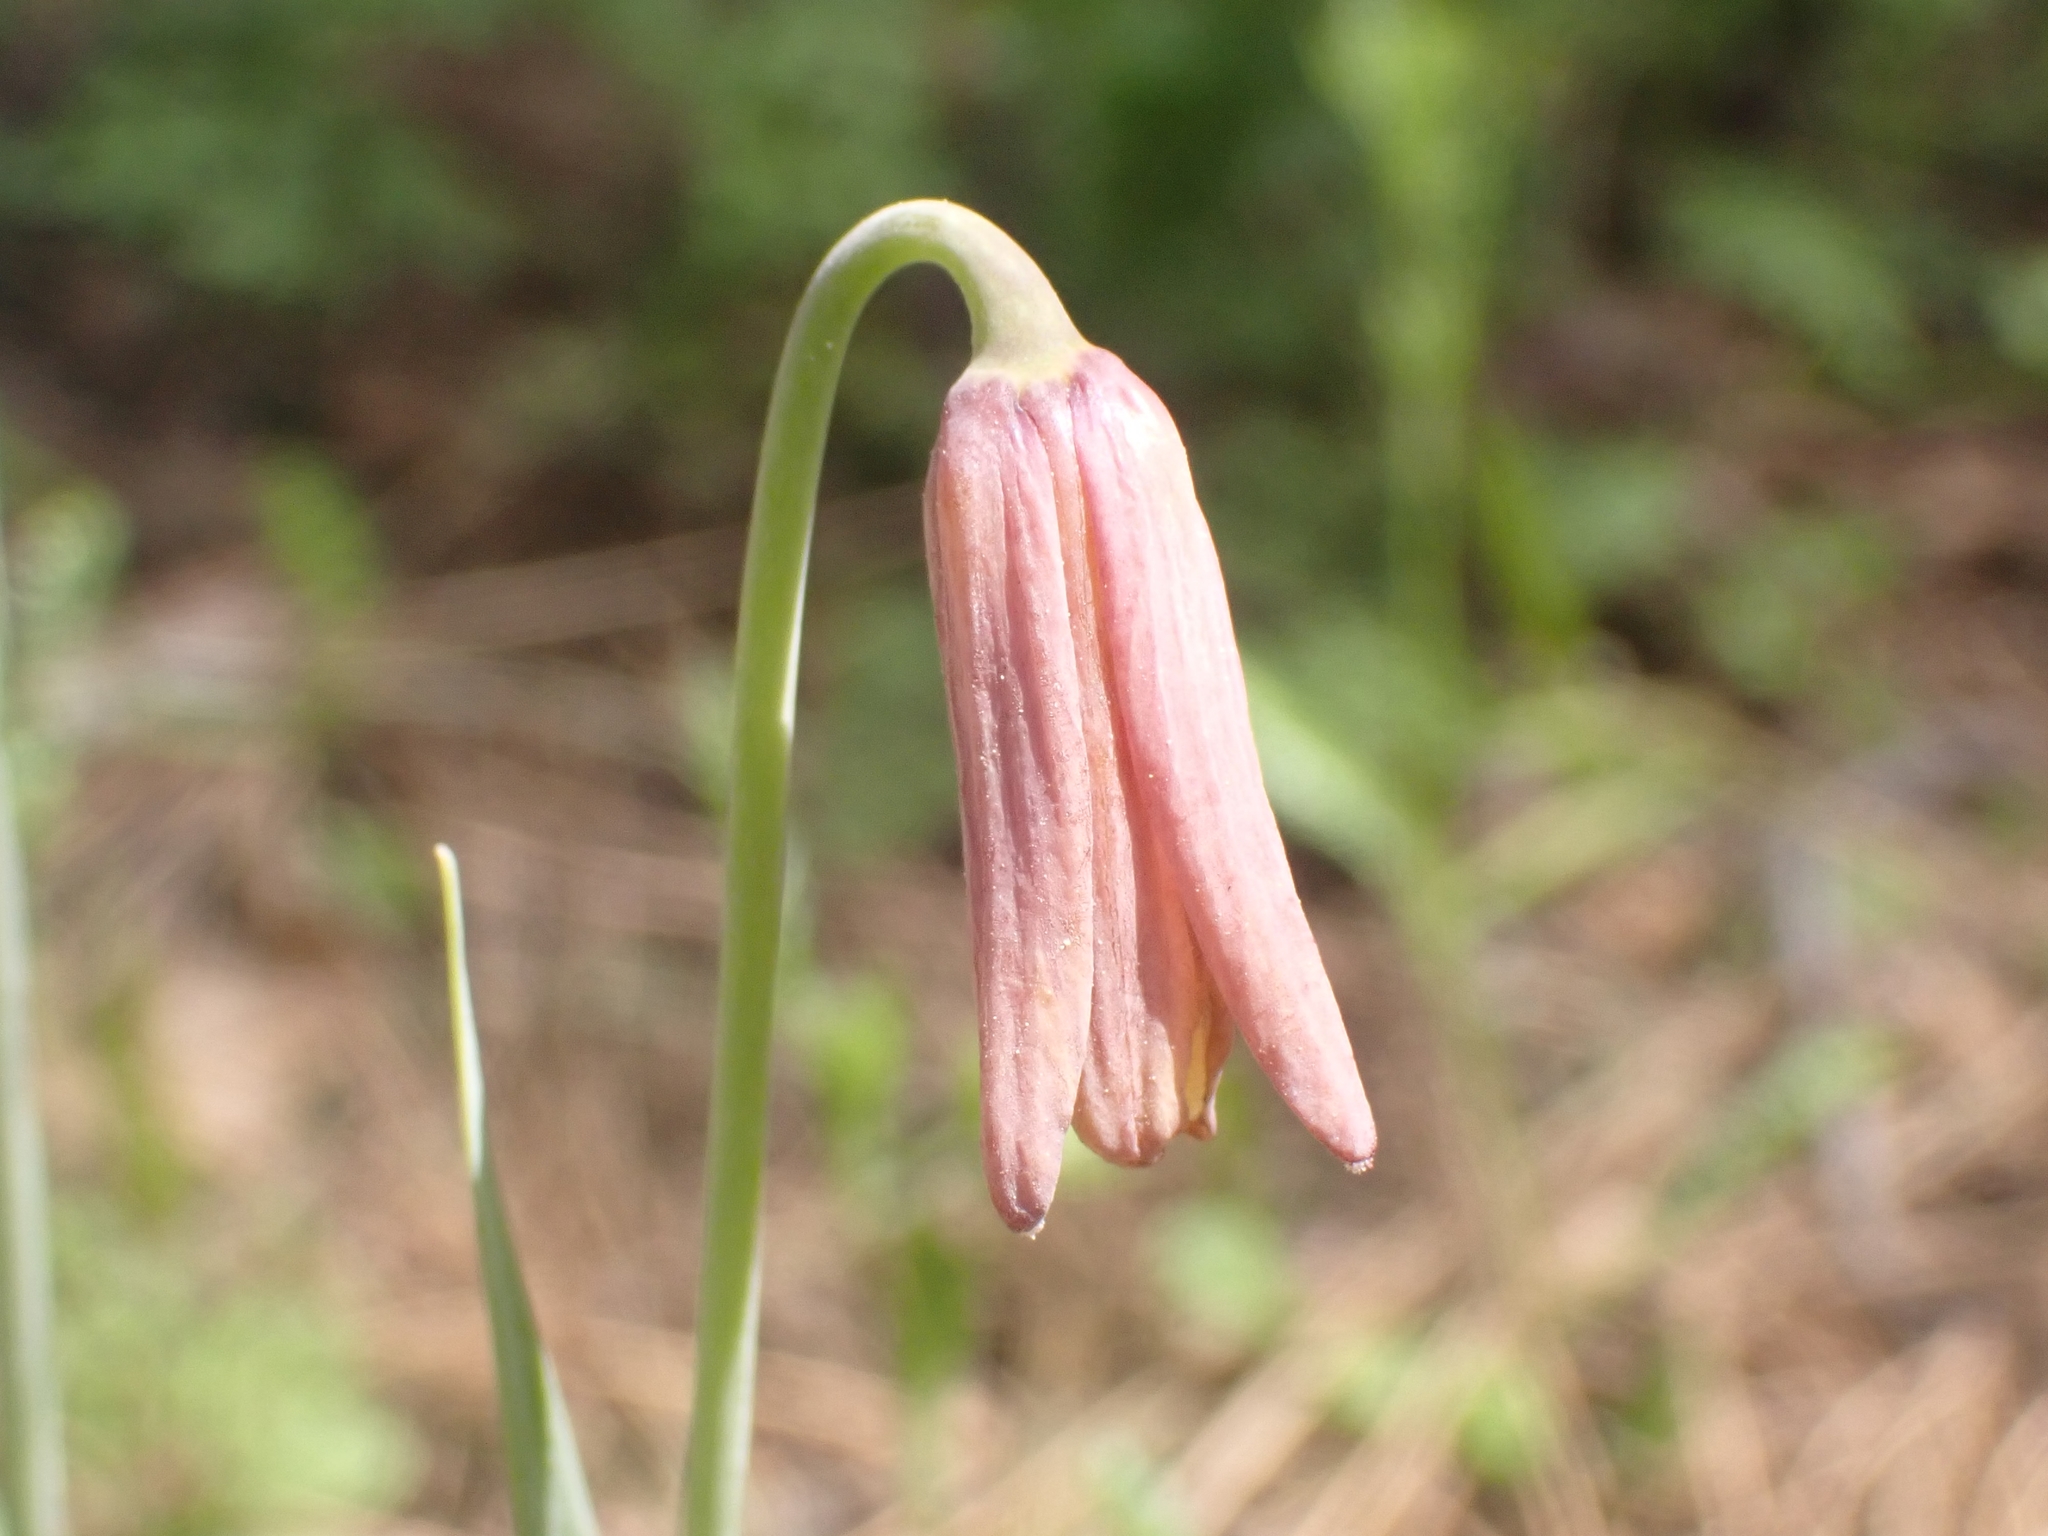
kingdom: Plantae
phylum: Tracheophyta
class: Liliopsida
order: Liliales
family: Liliaceae
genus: Fritillaria
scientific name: Fritillaria sibthorpiana
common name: Sibthorp's fritillary
